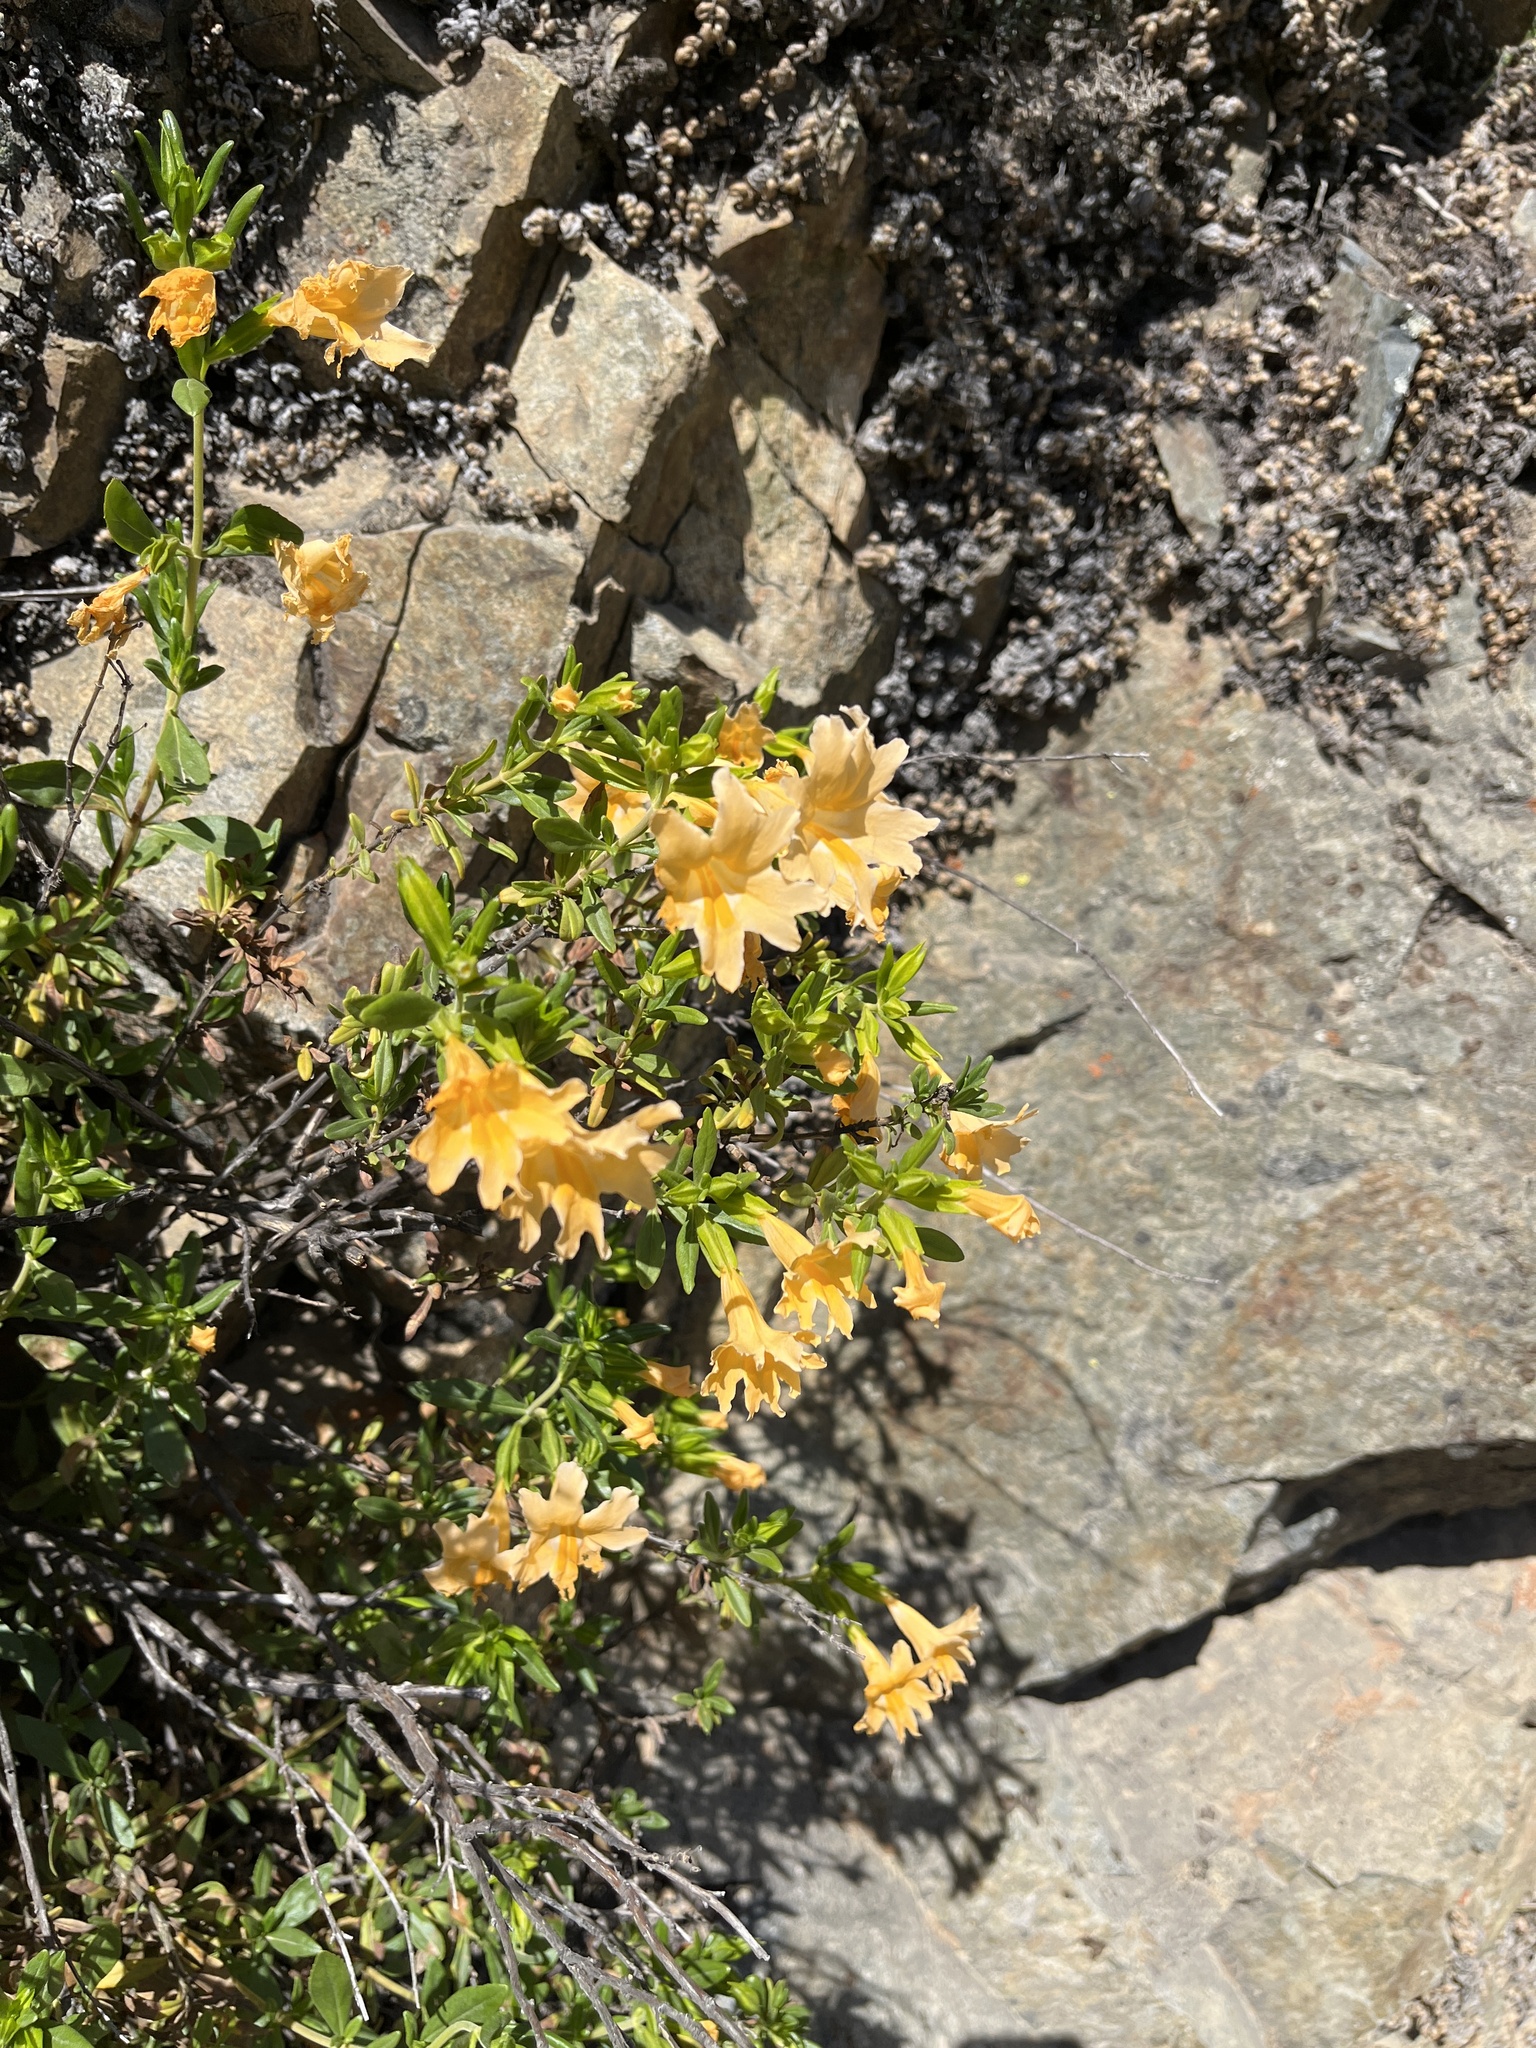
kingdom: Plantae
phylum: Tracheophyta
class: Magnoliopsida
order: Lamiales
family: Phrymaceae
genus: Diplacus
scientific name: Diplacus grandiflorus
